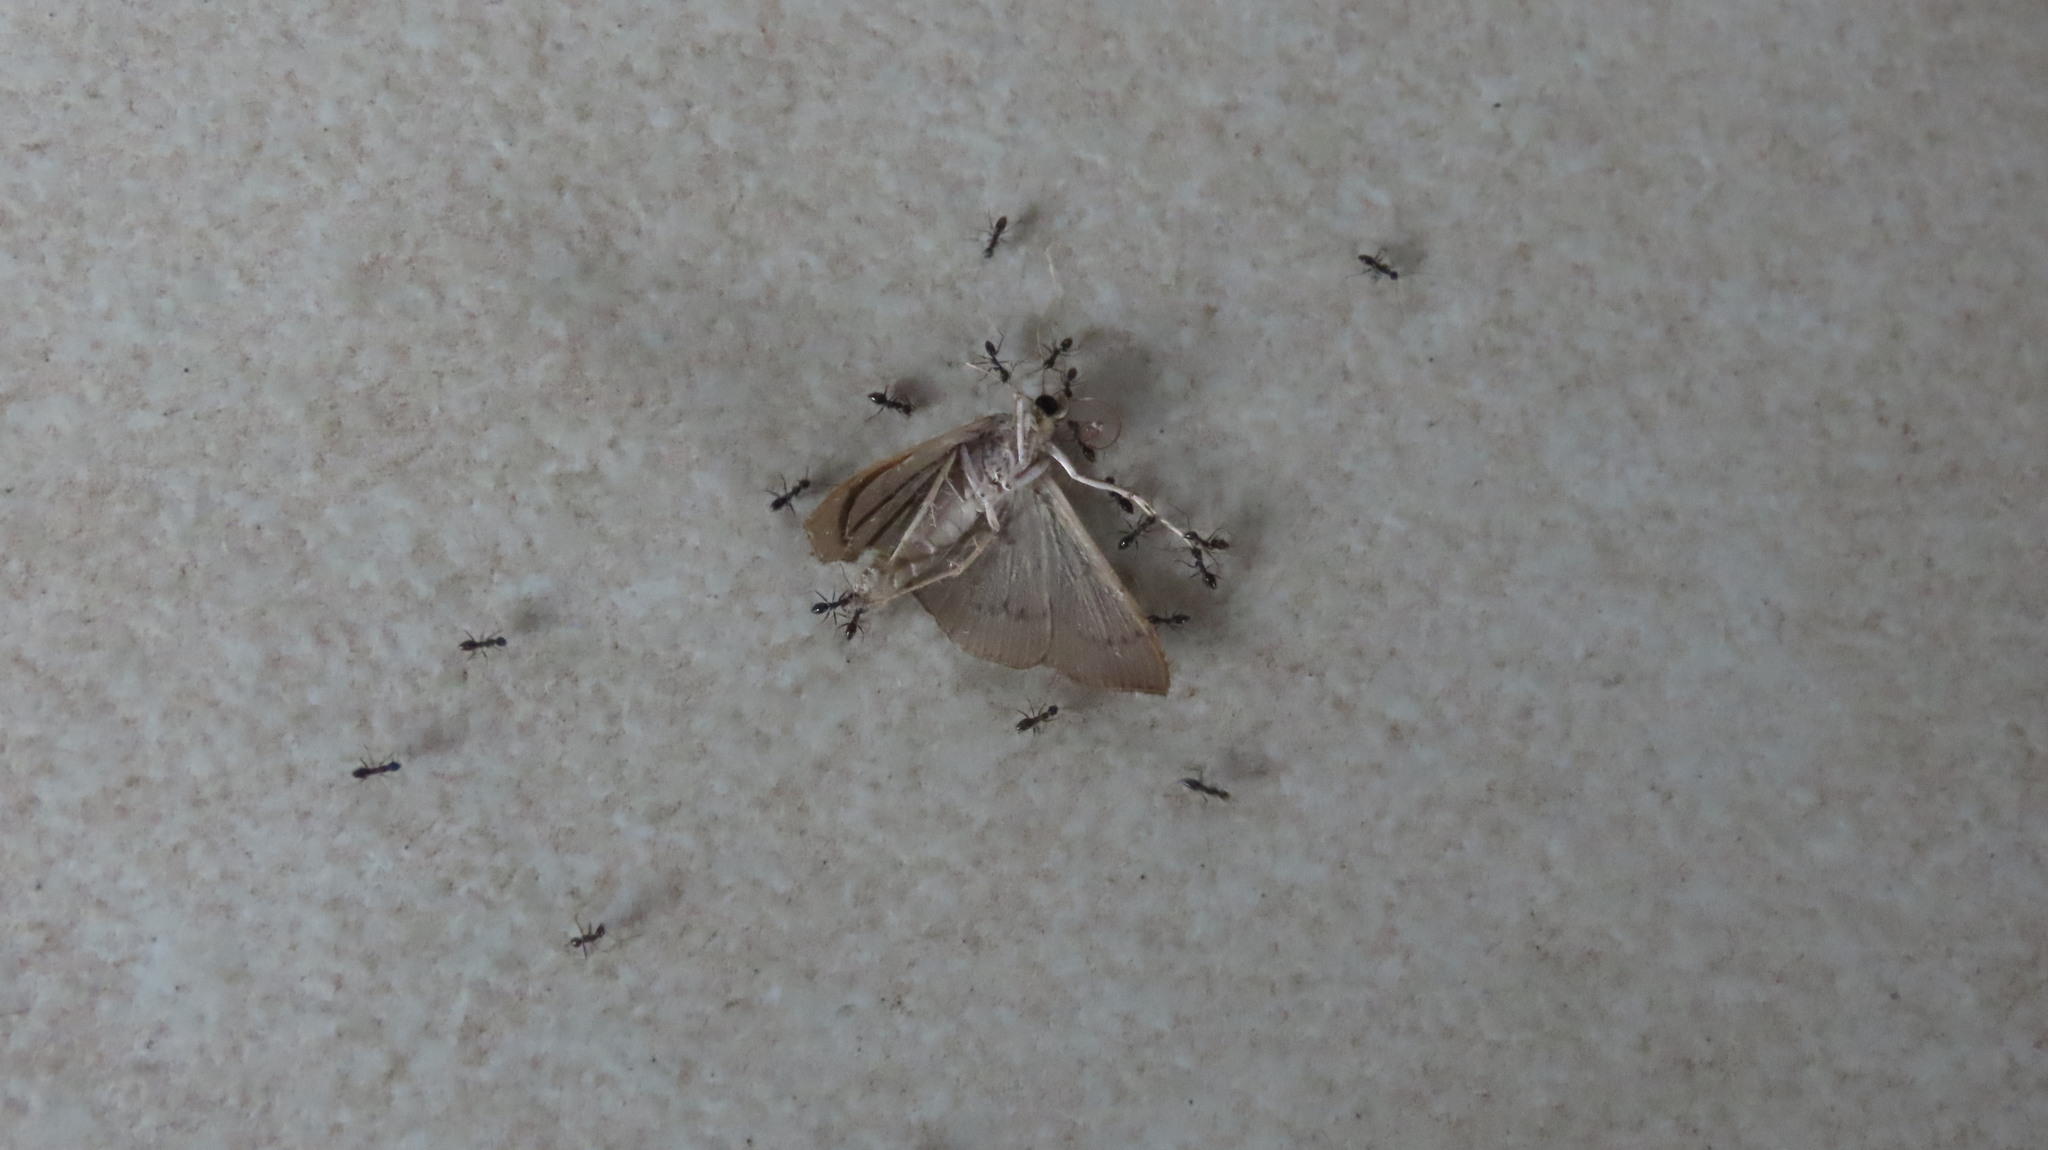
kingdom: Animalia
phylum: Arthropoda
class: Insecta
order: Hymenoptera
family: Formicidae
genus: Paratrechina
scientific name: Paratrechina longicornis
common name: Longhorned crazy ant
